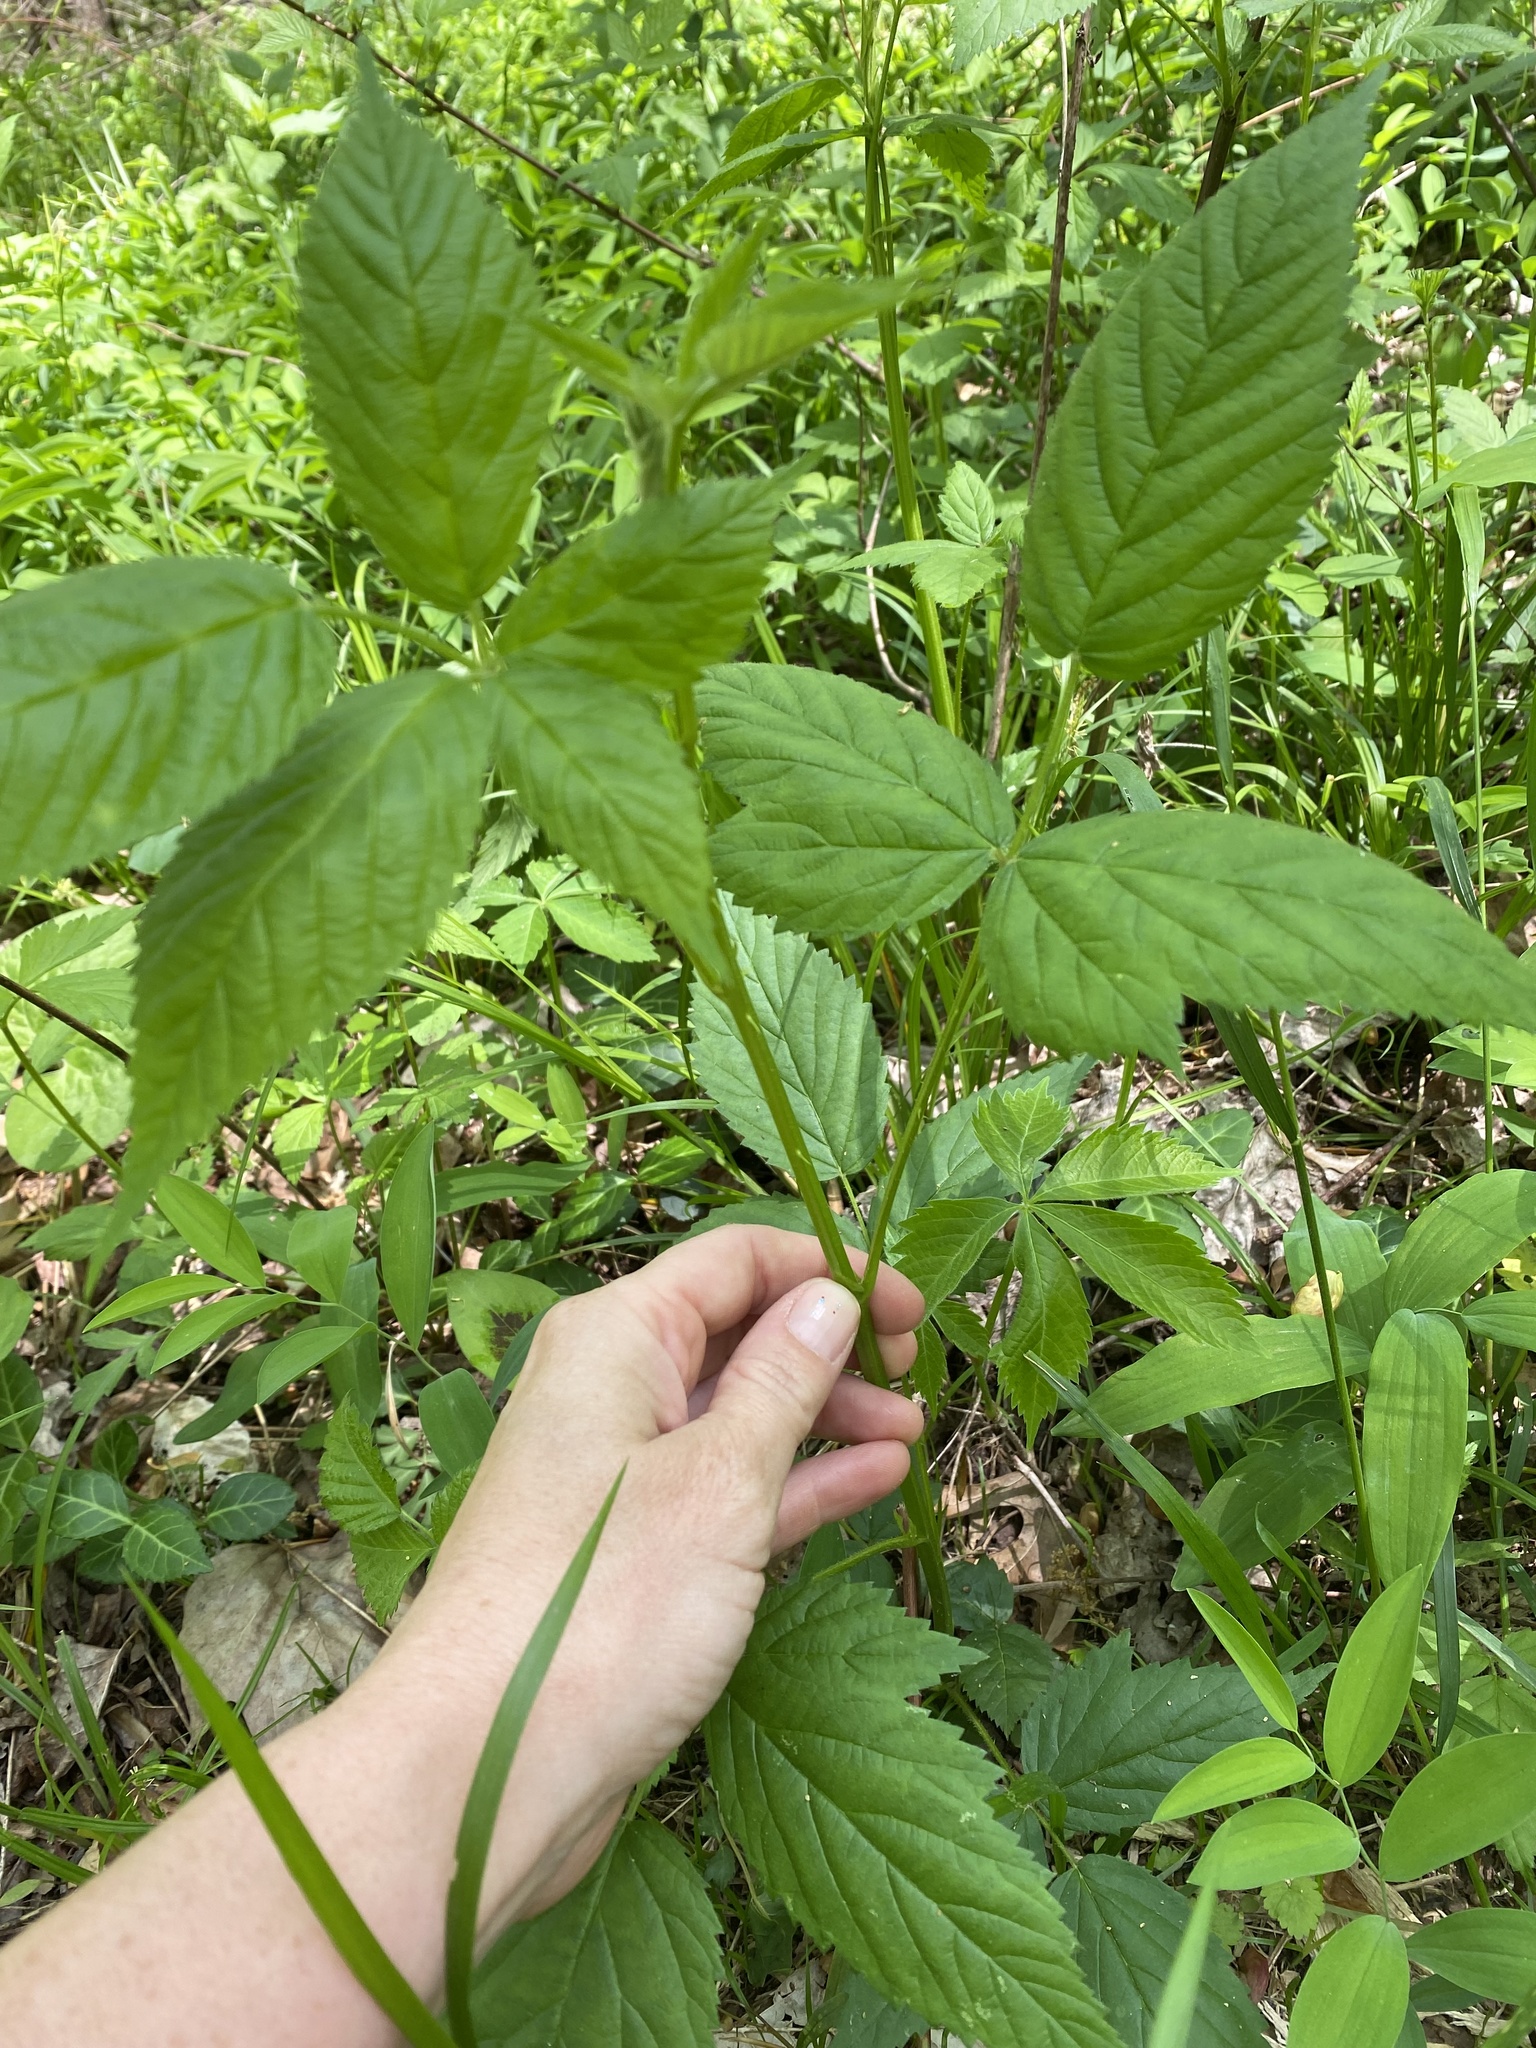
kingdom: Plantae
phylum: Tracheophyta
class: Magnoliopsida
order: Rosales
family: Rosaceae
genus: Rubus
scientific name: Rubus allegheniensis
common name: Allegheny blackberry
